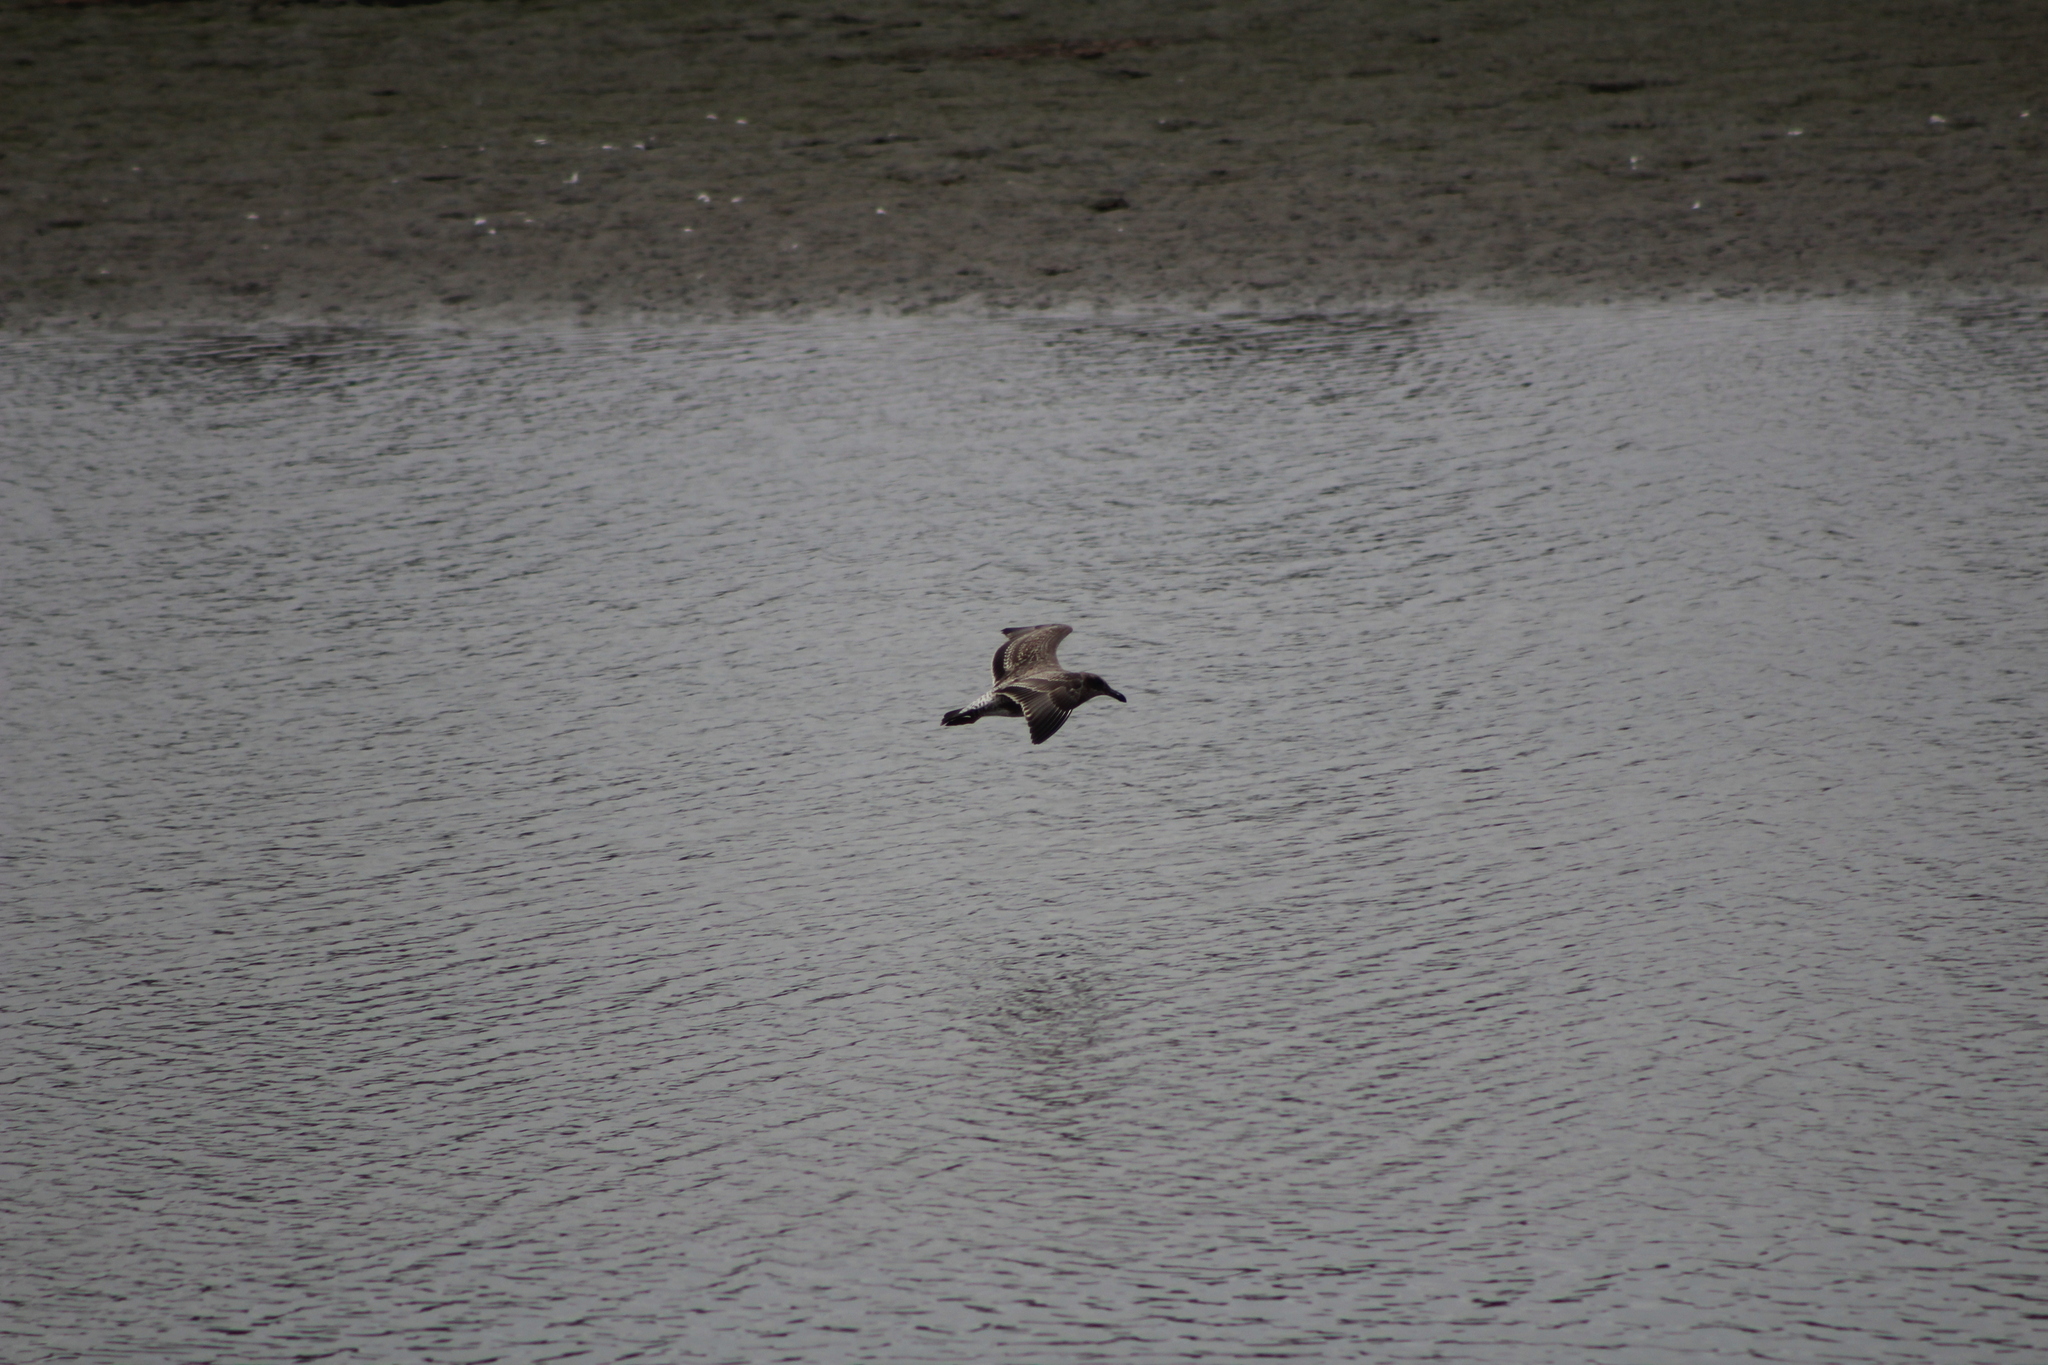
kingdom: Animalia
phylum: Chordata
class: Aves
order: Charadriiformes
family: Laridae
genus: Larus
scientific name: Larus occidentalis
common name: Western gull
